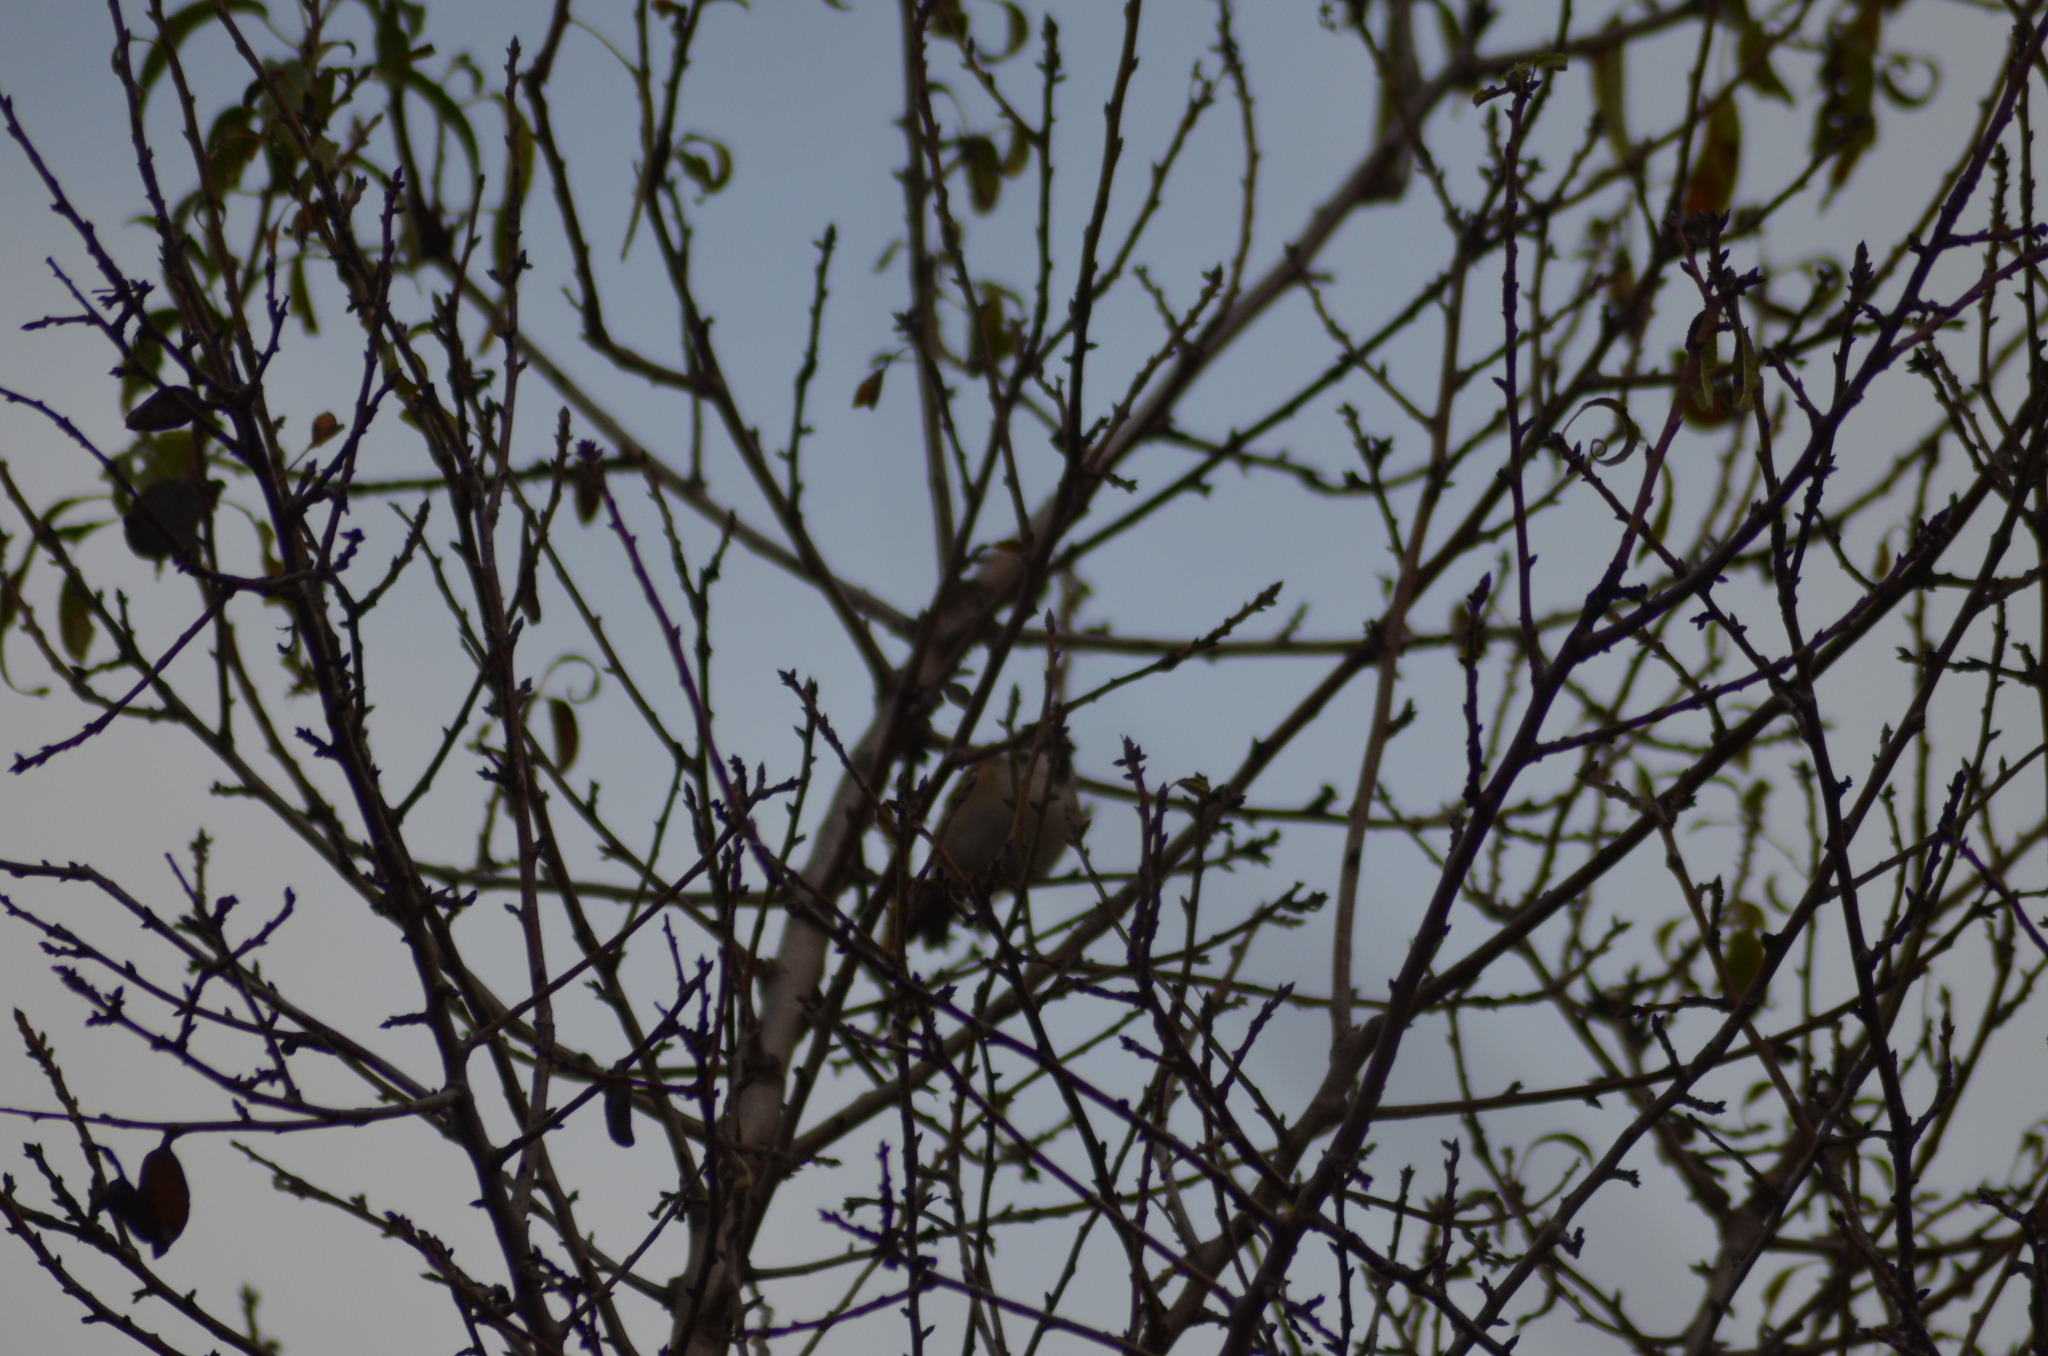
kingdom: Animalia
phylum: Chordata
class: Aves
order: Passeriformes
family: Passeridae
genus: Passer
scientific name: Passer montanus
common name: Eurasian tree sparrow
